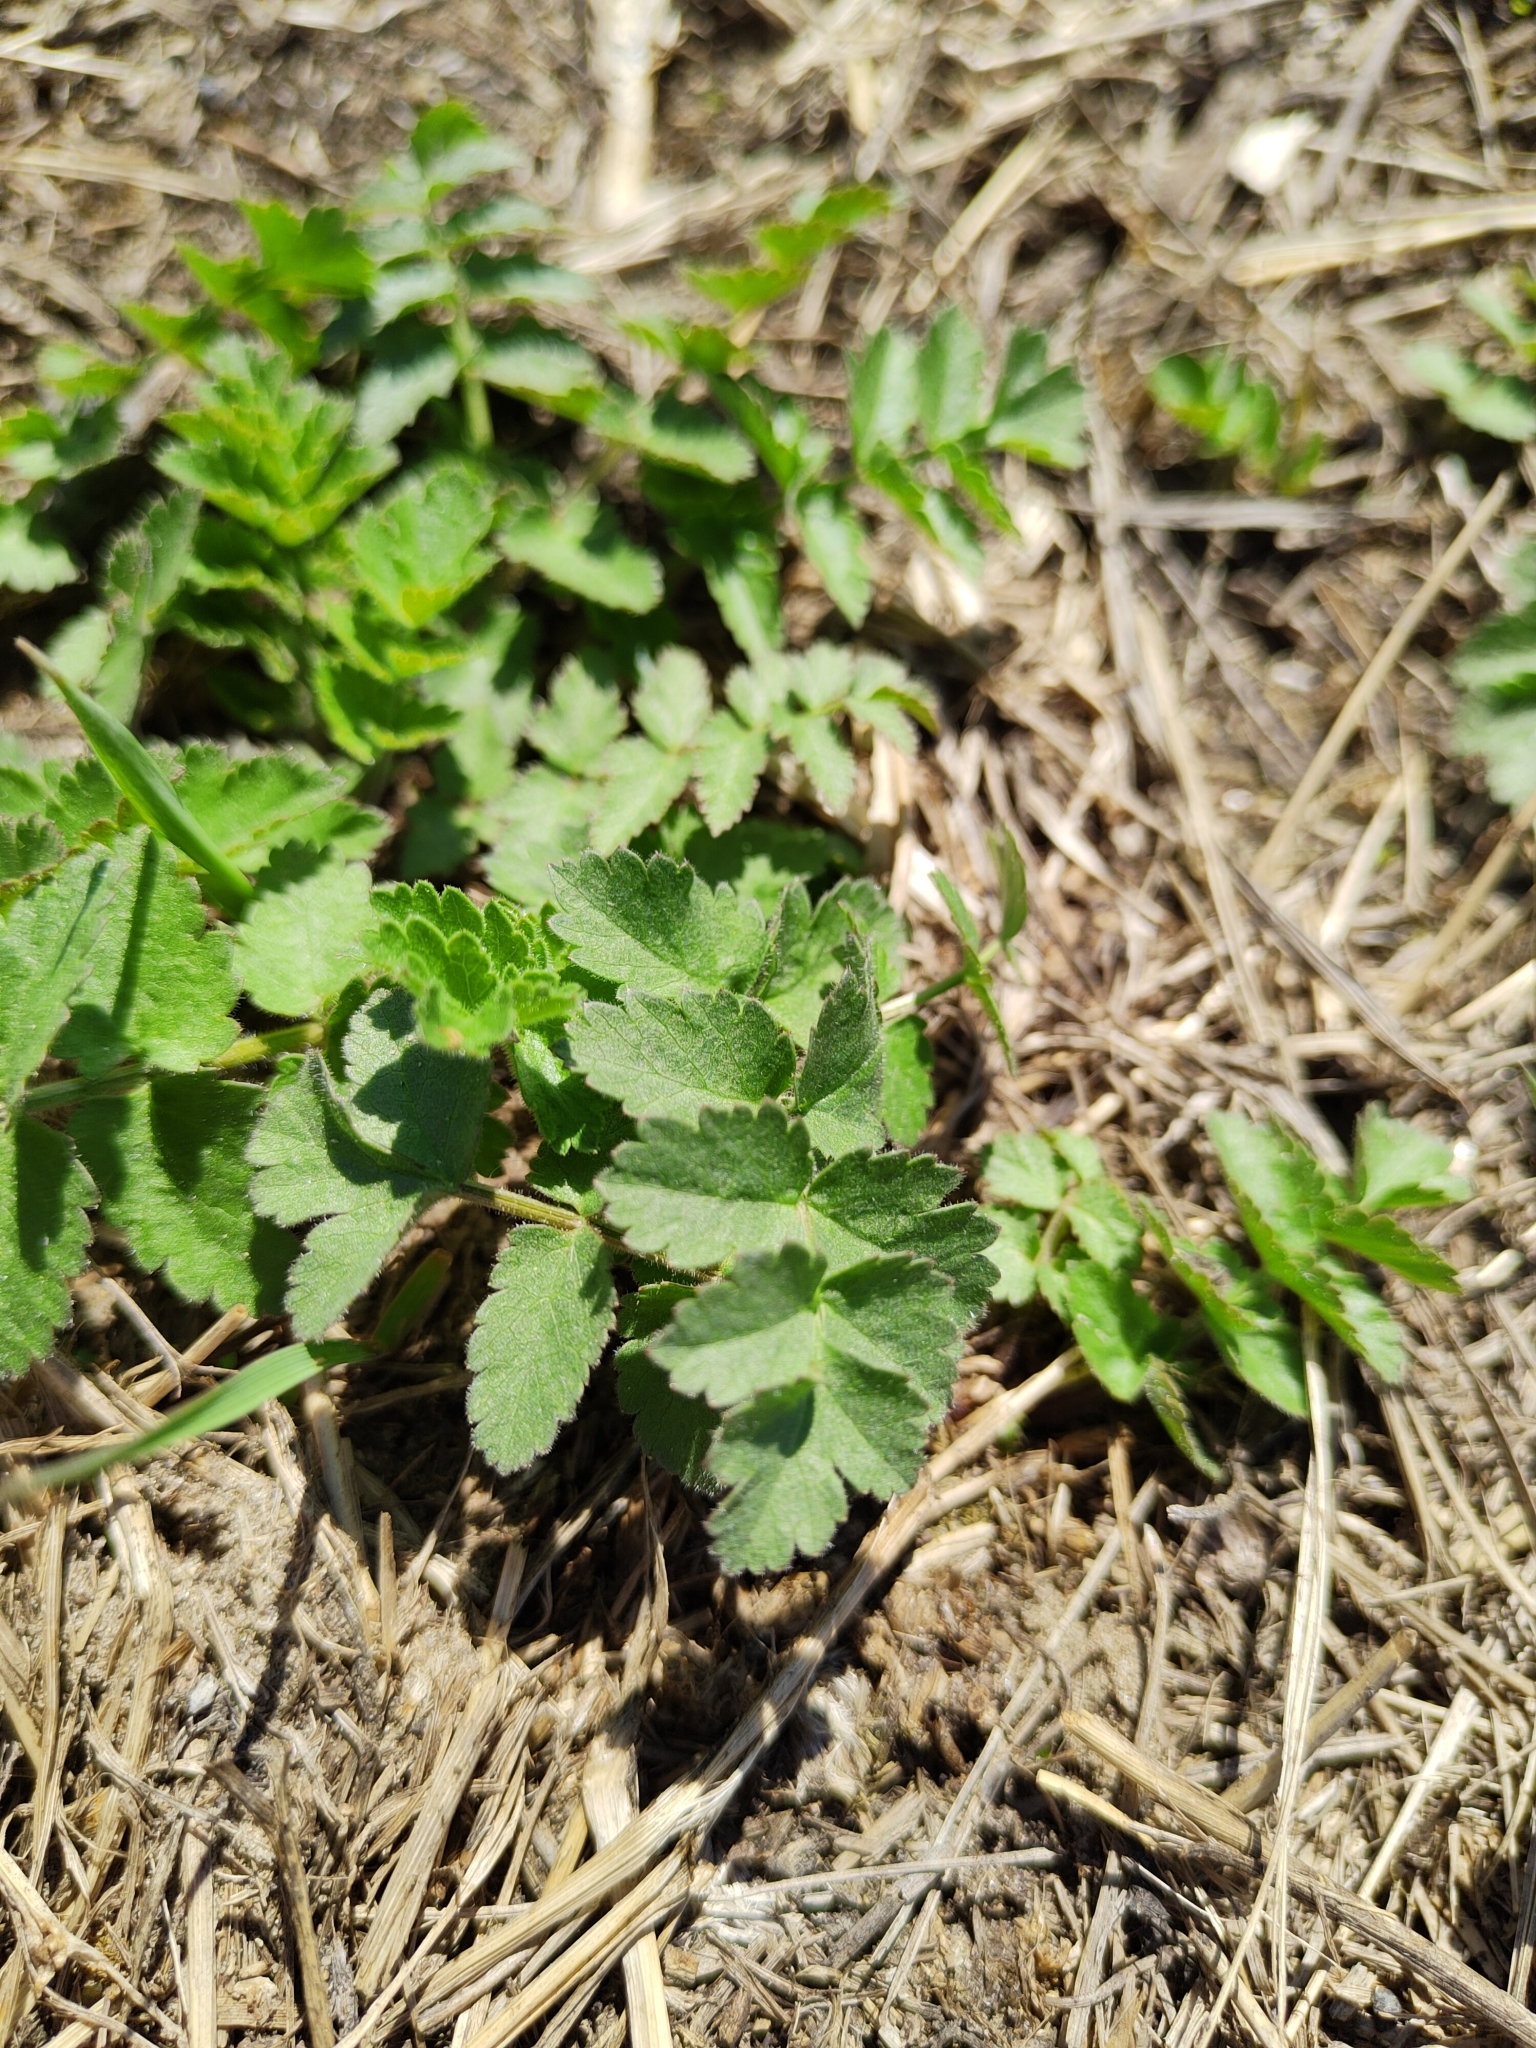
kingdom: Plantae
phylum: Tracheophyta
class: Magnoliopsida
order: Apiales
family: Apiaceae
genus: Pimpinella
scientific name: Pimpinella saxifraga
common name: Burnet-saxifrage
